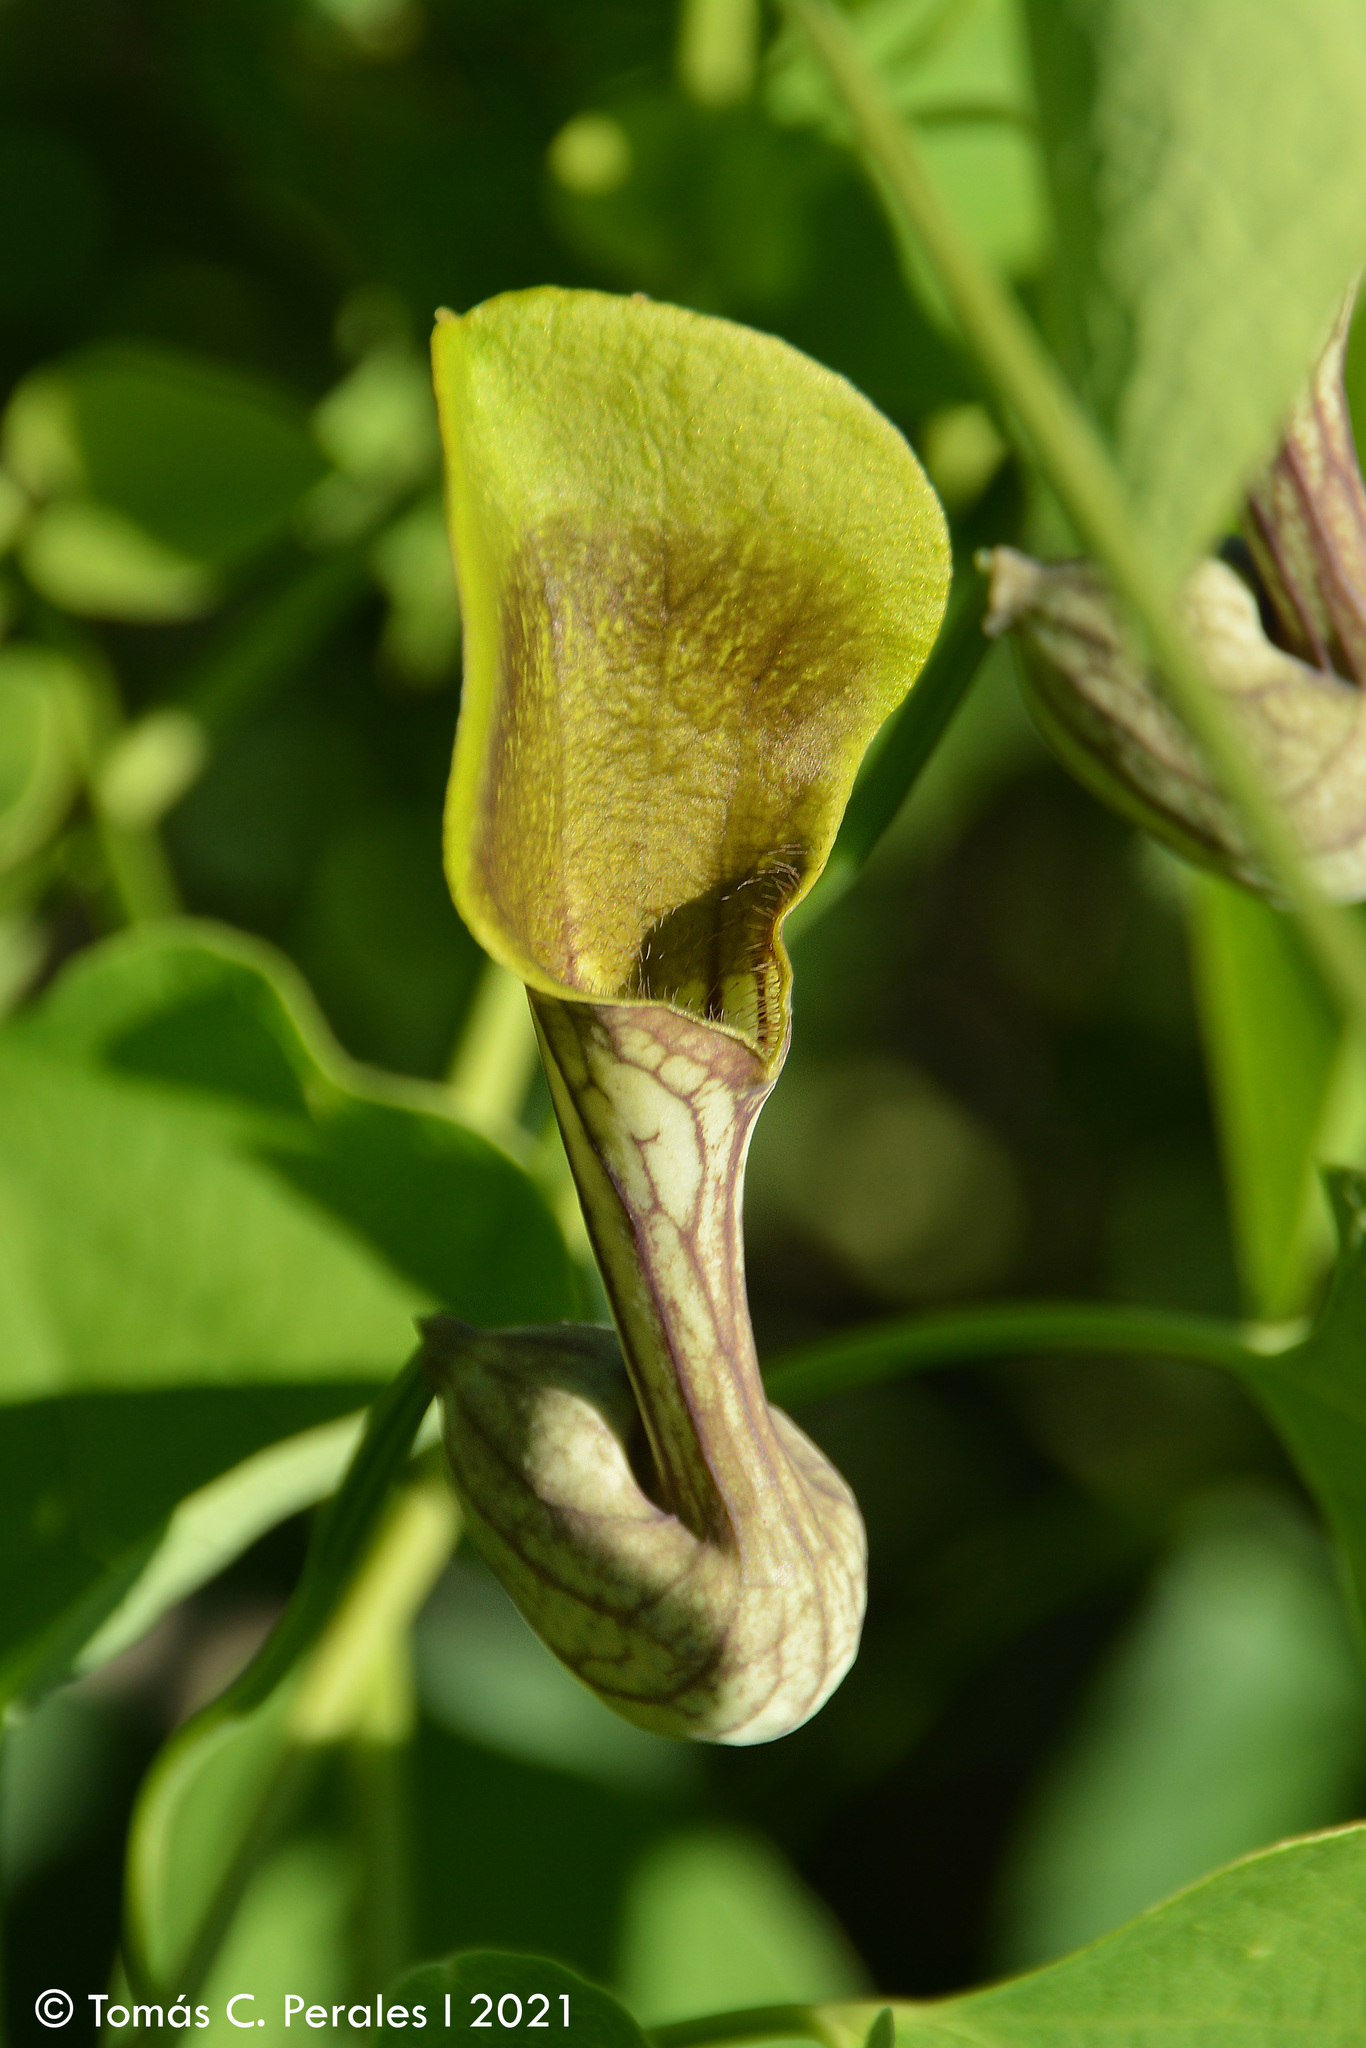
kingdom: Plantae
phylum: Tracheophyta
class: Magnoliopsida
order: Piperales
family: Aristolochiaceae
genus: Aristolochia
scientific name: Aristolochia argentina
